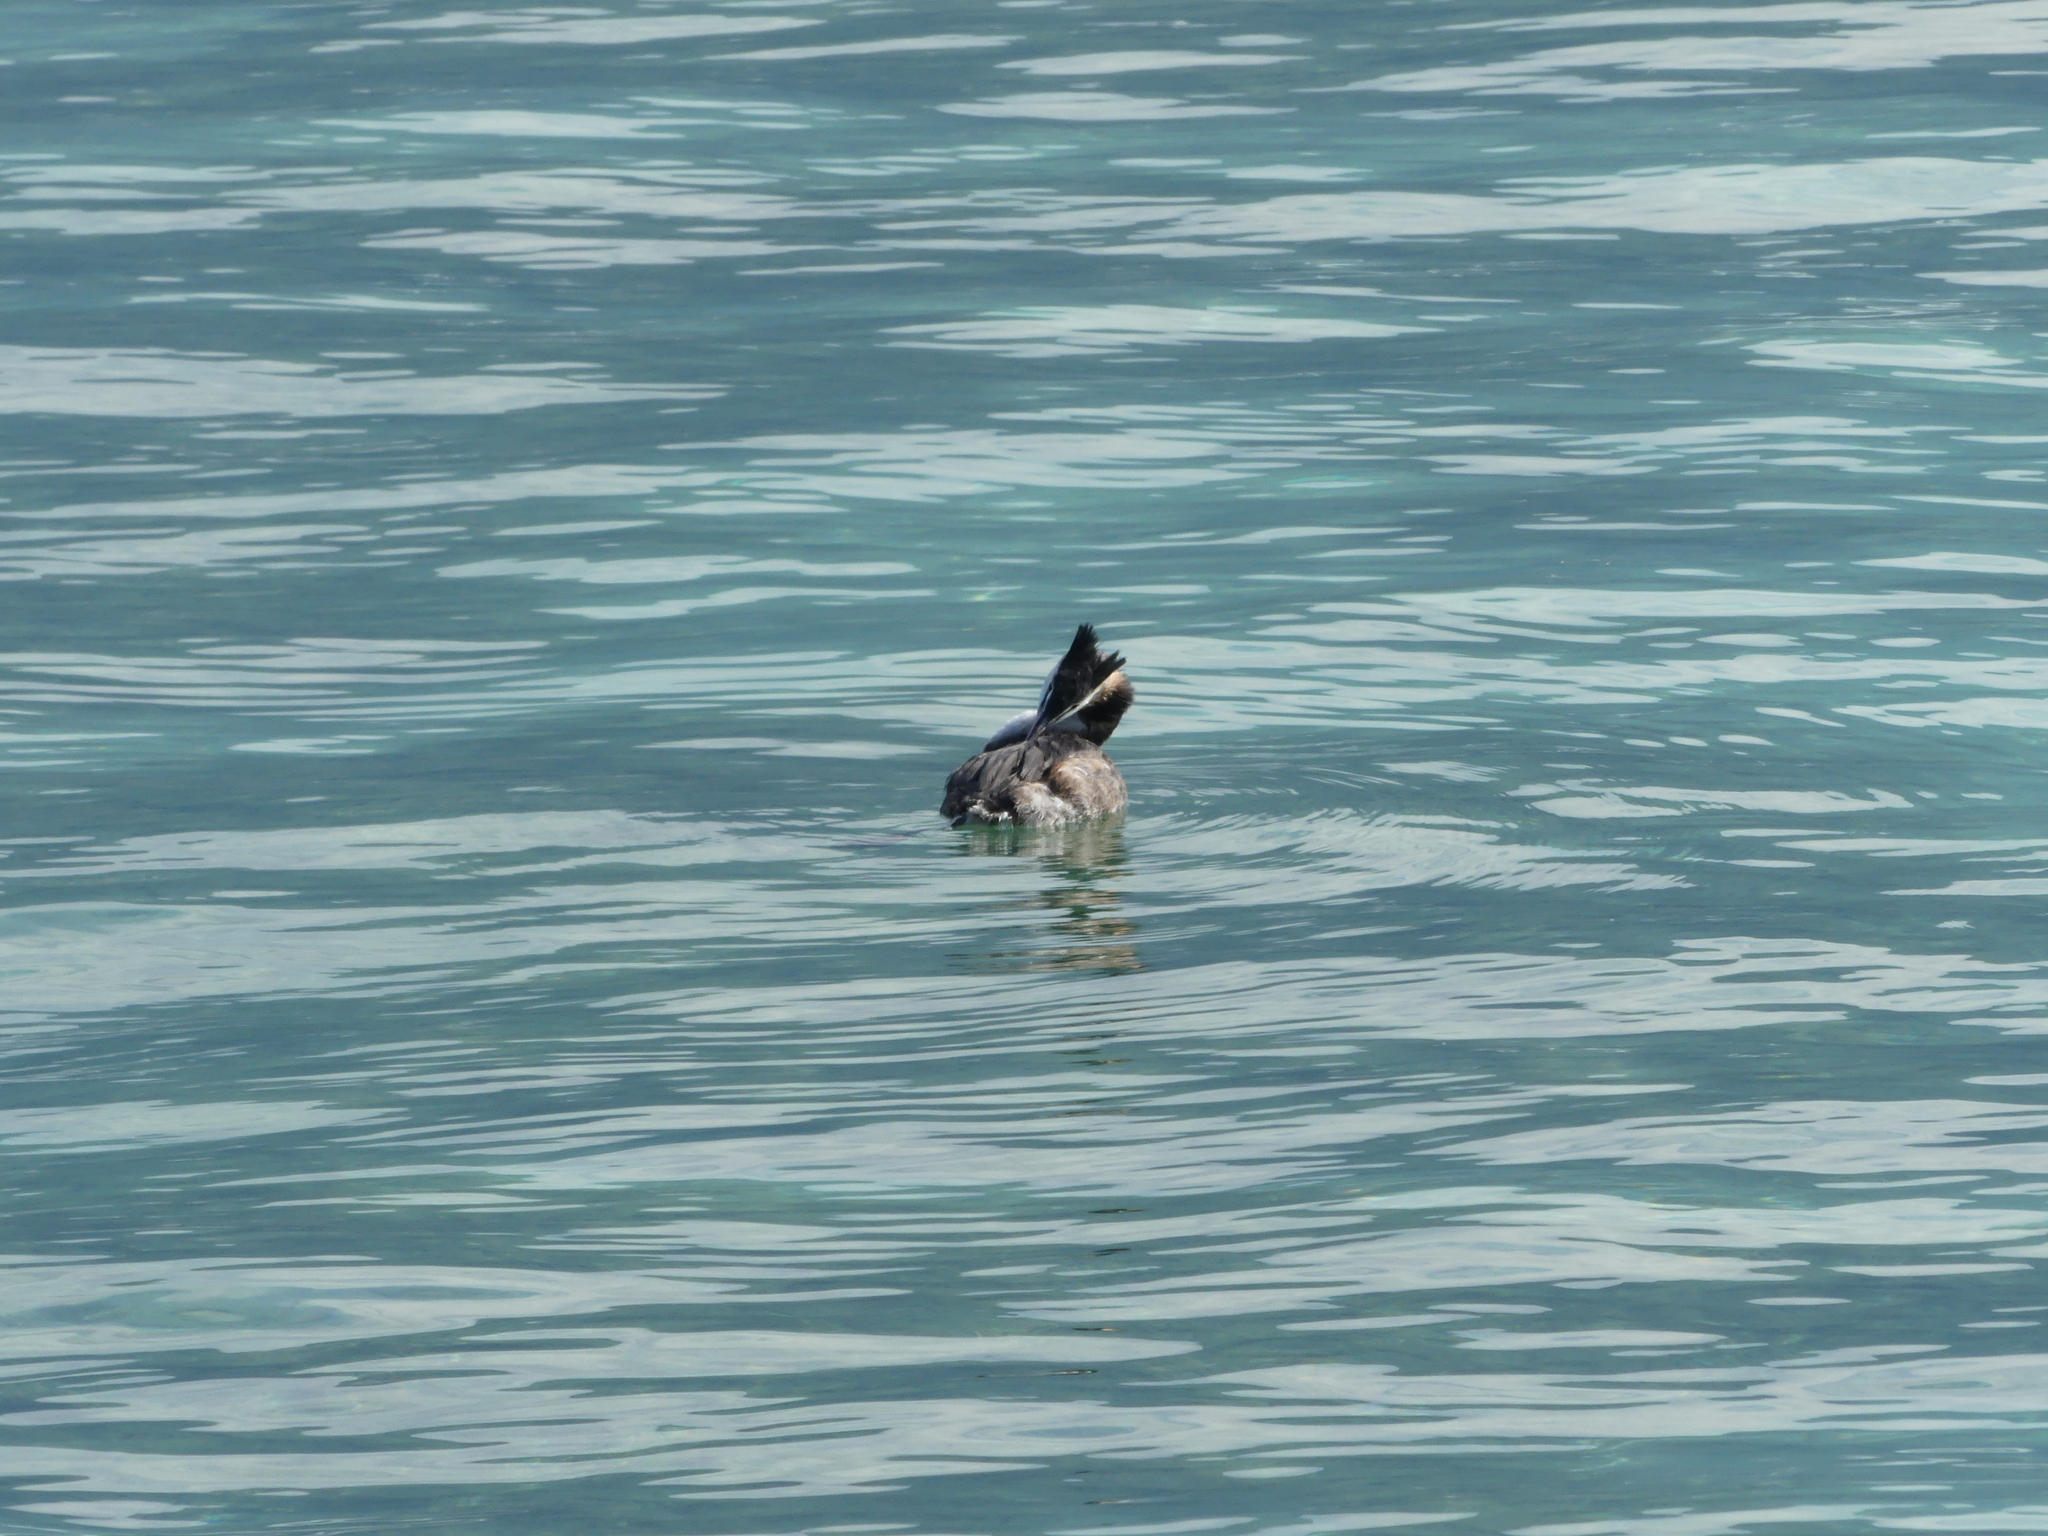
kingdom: Animalia
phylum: Chordata
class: Aves
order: Podicipediformes
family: Podicipedidae
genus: Podiceps
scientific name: Podiceps cristatus
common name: Great crested grebe
